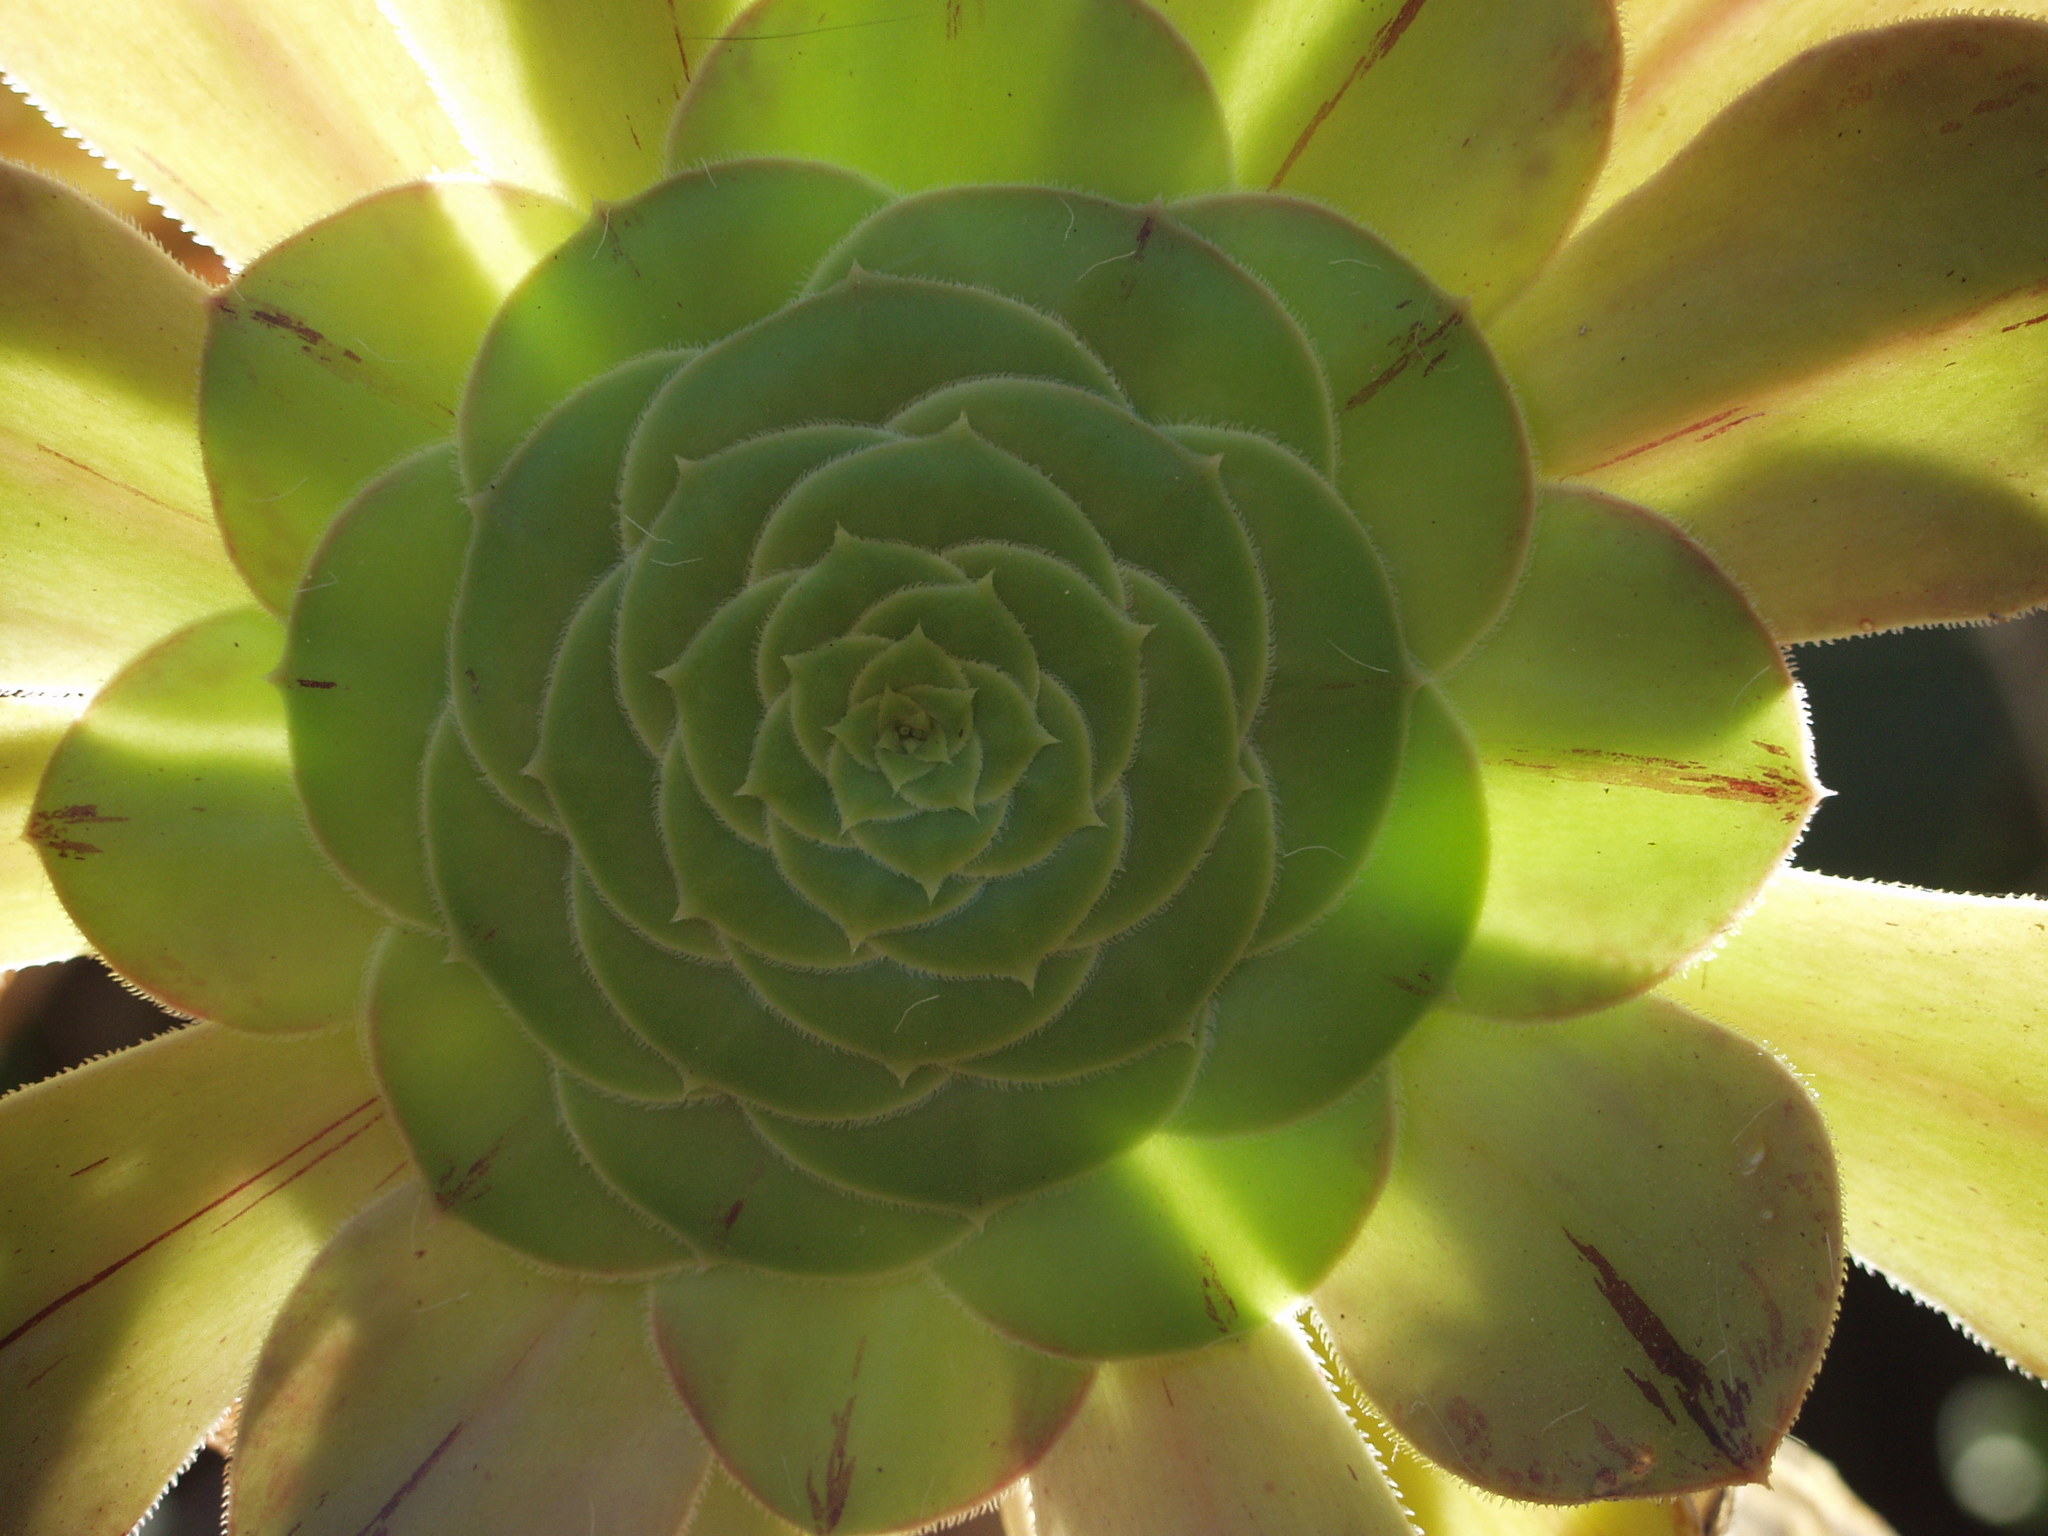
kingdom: Plantae
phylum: Tracheophyta
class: Magnoliopsida
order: Saxifragales
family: Crassulaceae
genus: Aeonium
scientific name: Aeonium arboreum
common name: Tree aeonium
